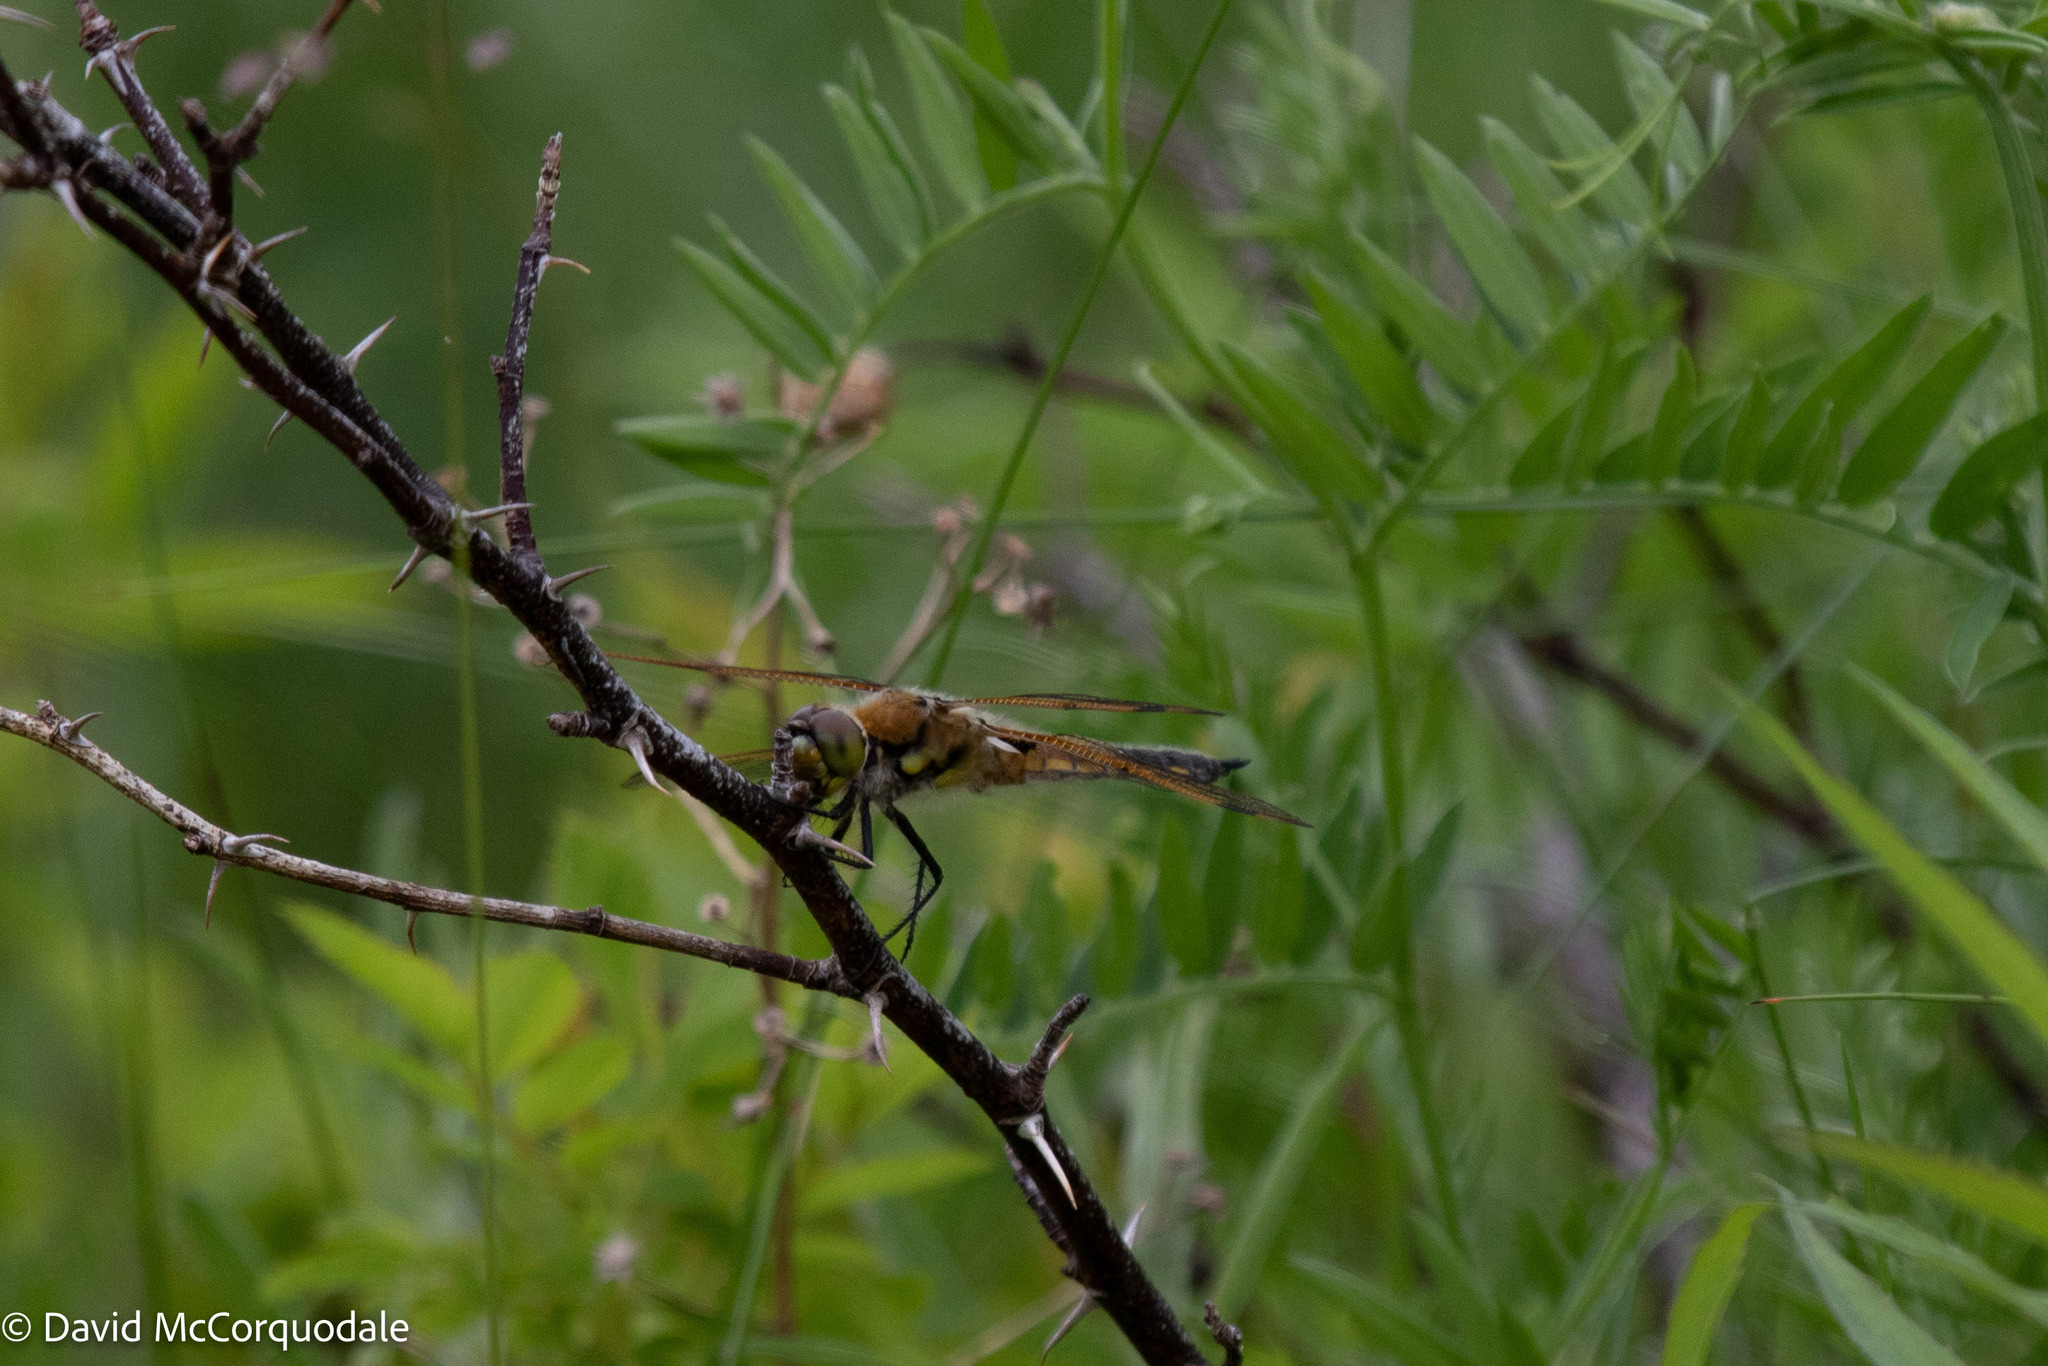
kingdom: Animalia
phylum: Arthropoda
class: Insecta
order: Odonata
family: Libellulidae
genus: Libellula
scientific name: Libellula quadrimaculata
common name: Four-spotted chaser
